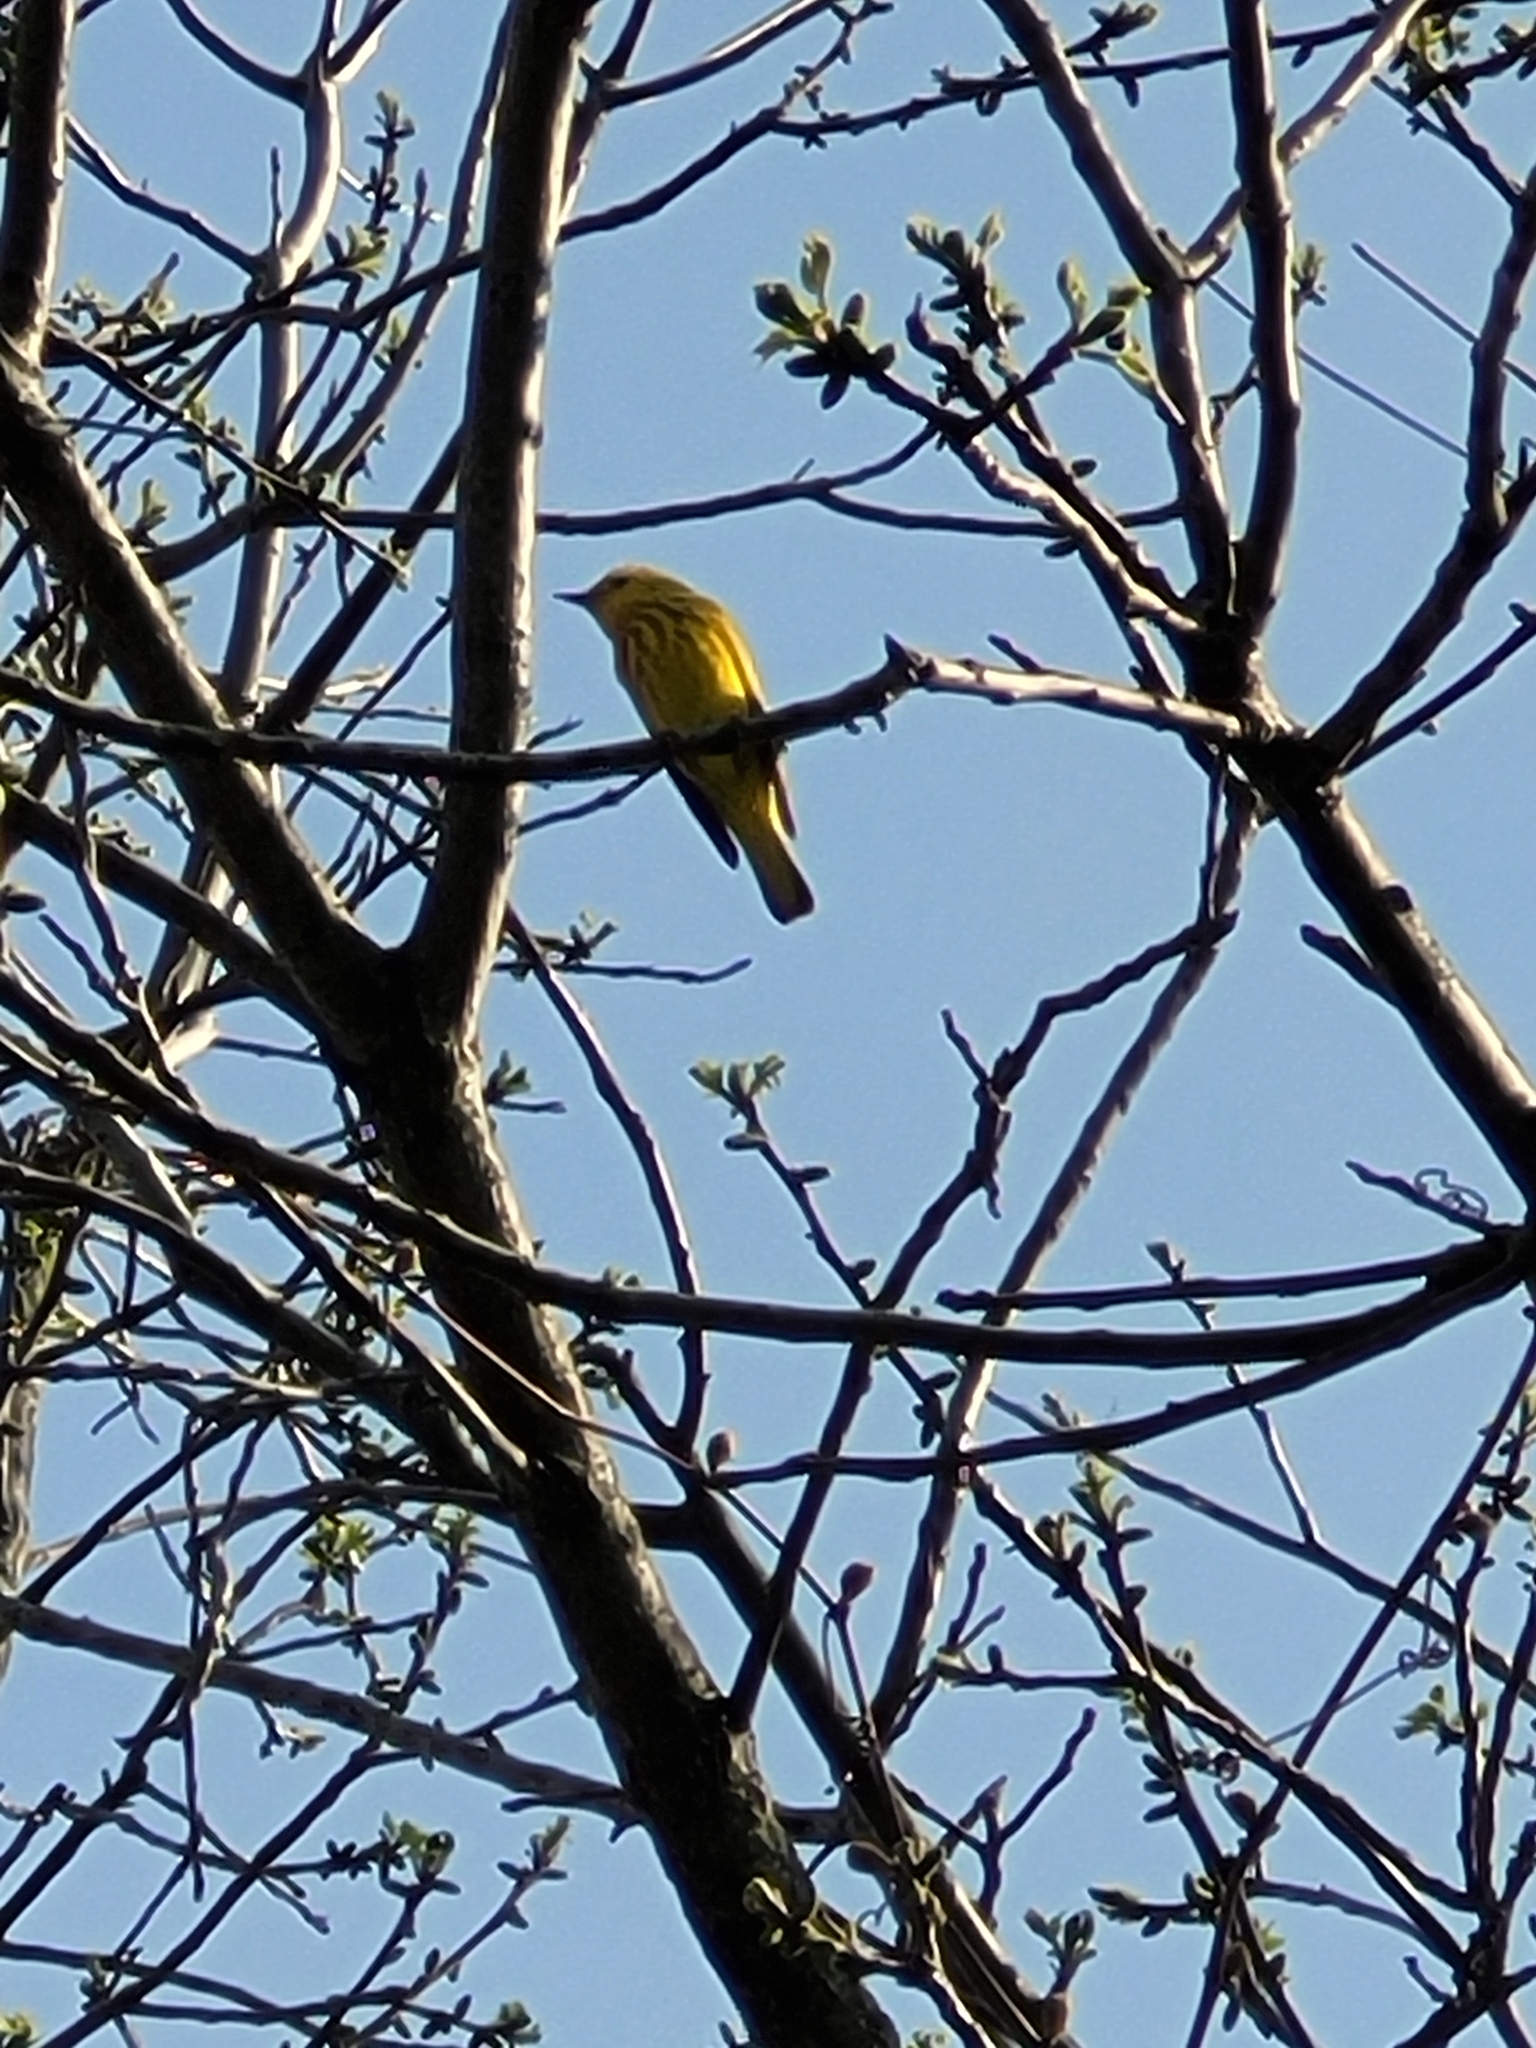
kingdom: Animalia
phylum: Chordata
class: Aves
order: Passeriformes
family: Parulidae
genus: Setophaga
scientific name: Setophaga petechia
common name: Yellow warbler
